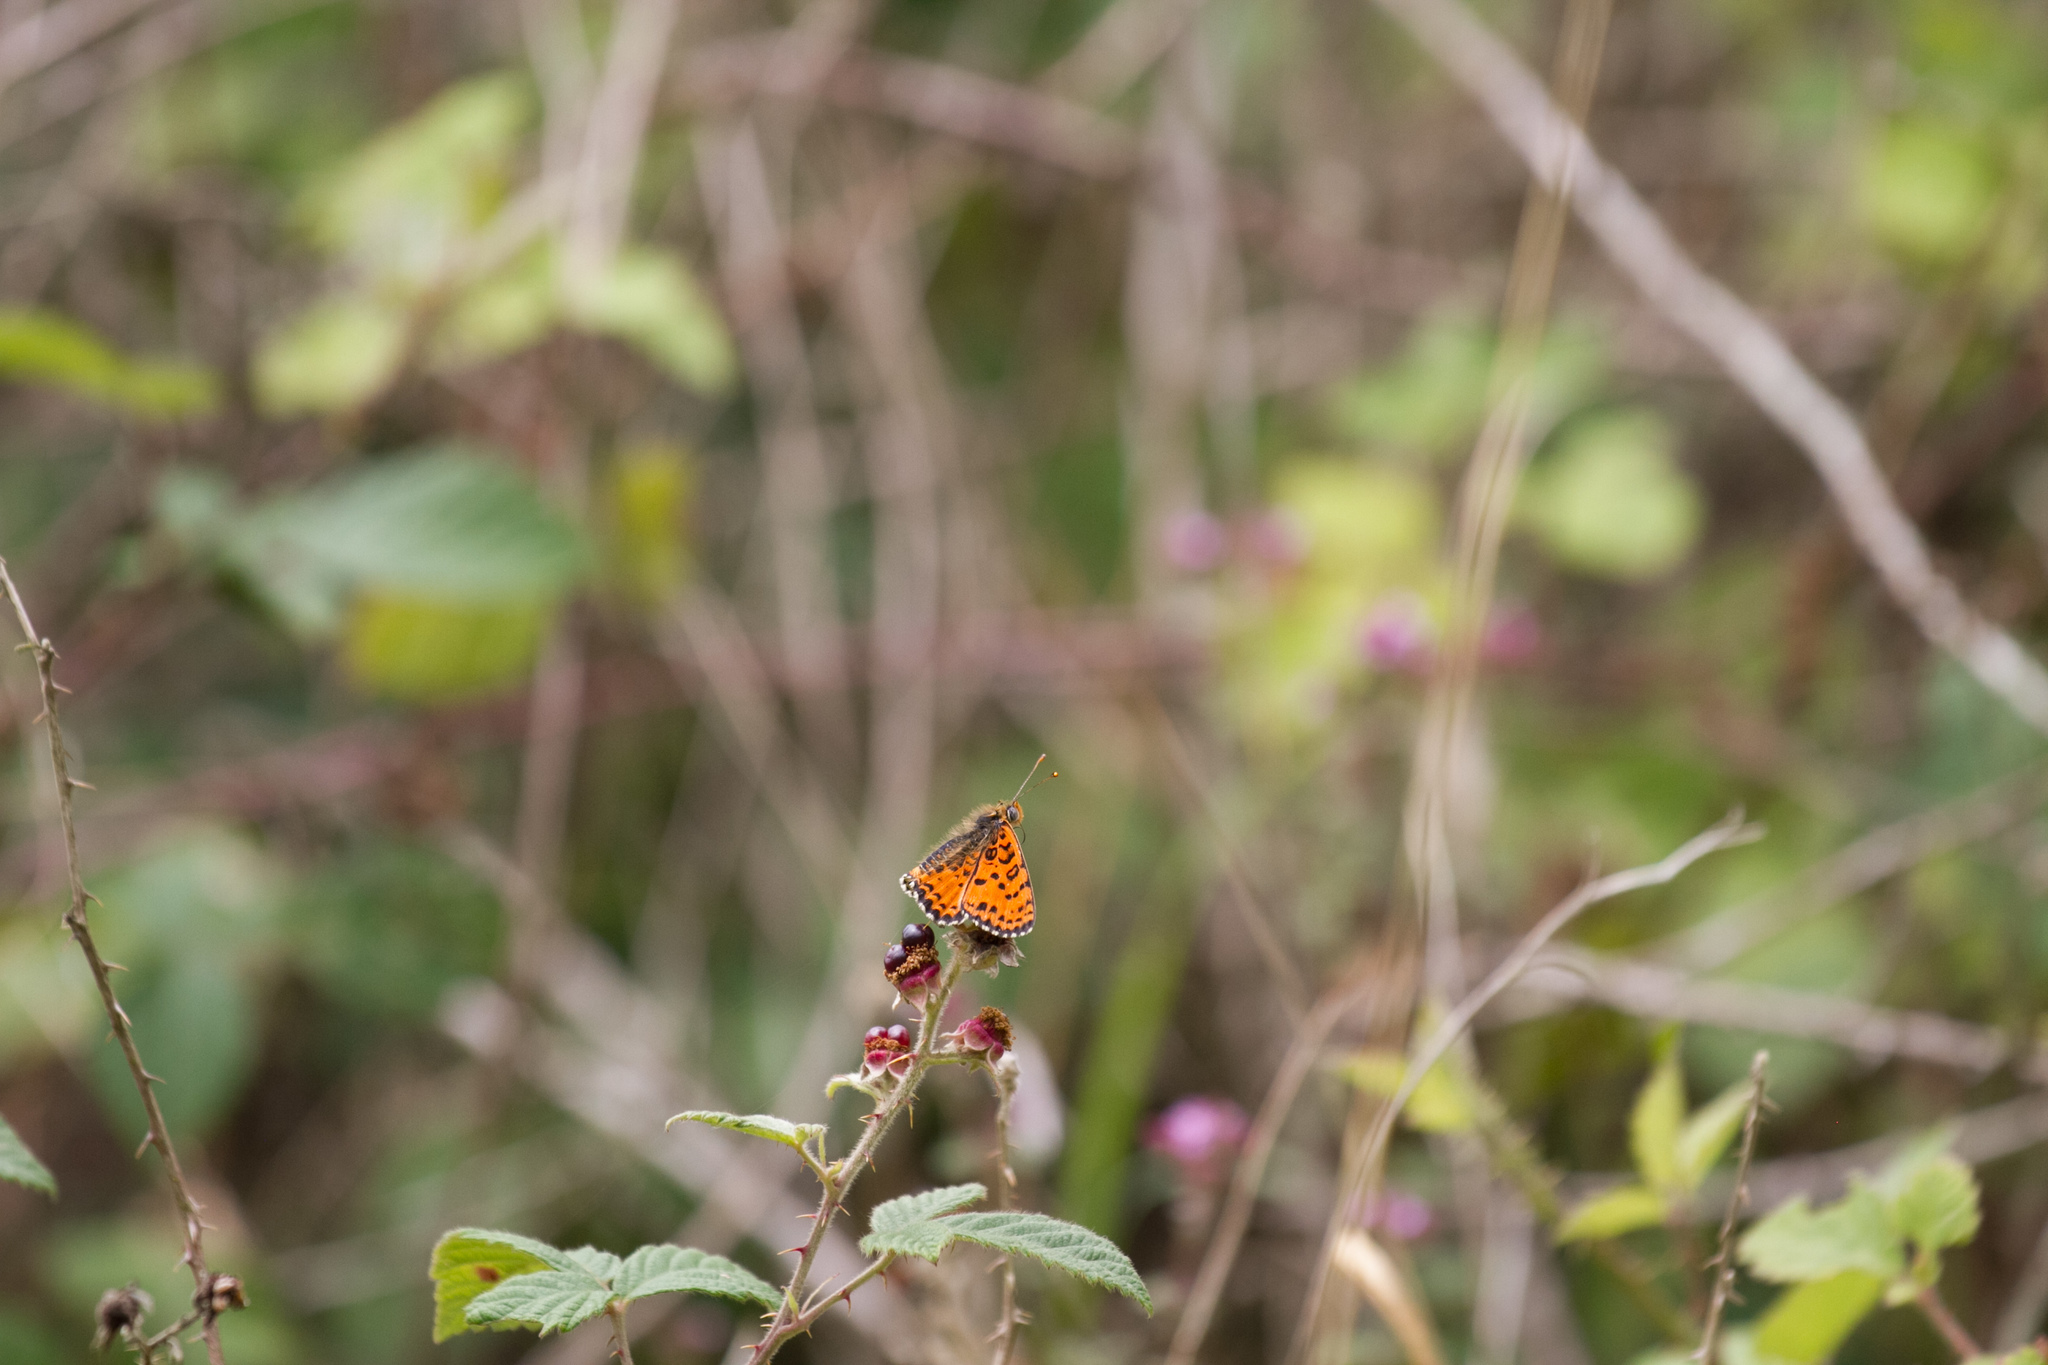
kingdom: Animalia
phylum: Arthropoda
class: Insecta
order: Lepidoptera
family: Nymphalidae
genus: Melitaea
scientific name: Melitaea didyma
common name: Spotted fritillary
